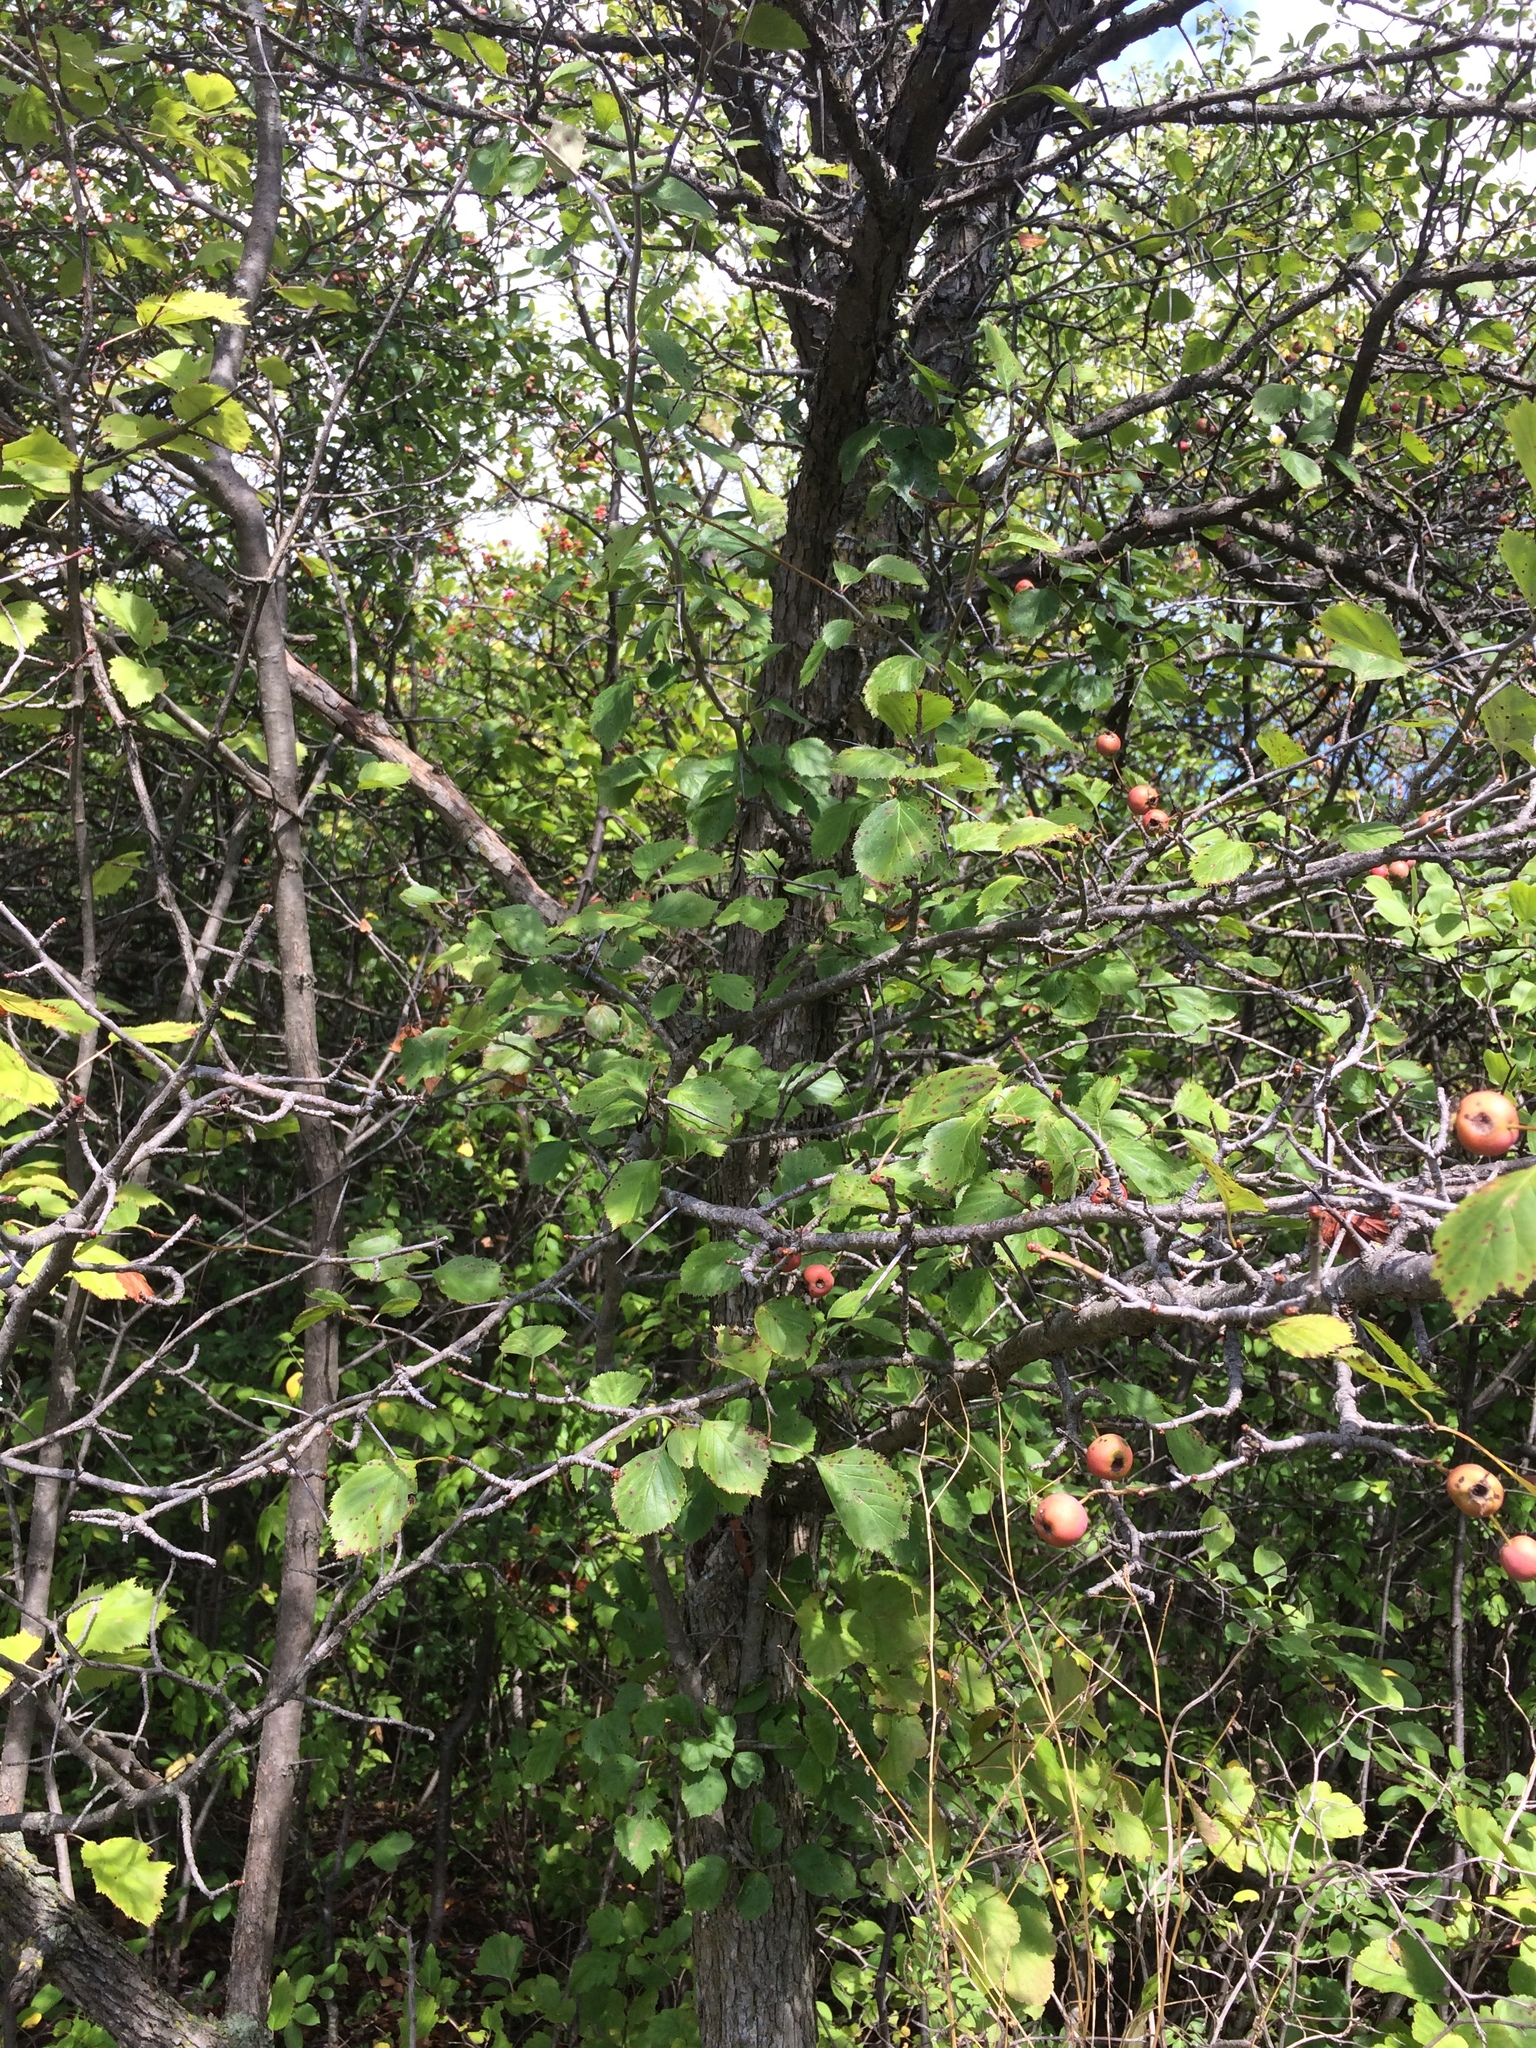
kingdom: Plantae
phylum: Tracheophyta
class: Magnoliopsida
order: Rosales
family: Rosaceae
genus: Crataegus
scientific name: Crataegus suborbiculata
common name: Caughnawaga hawthorn
